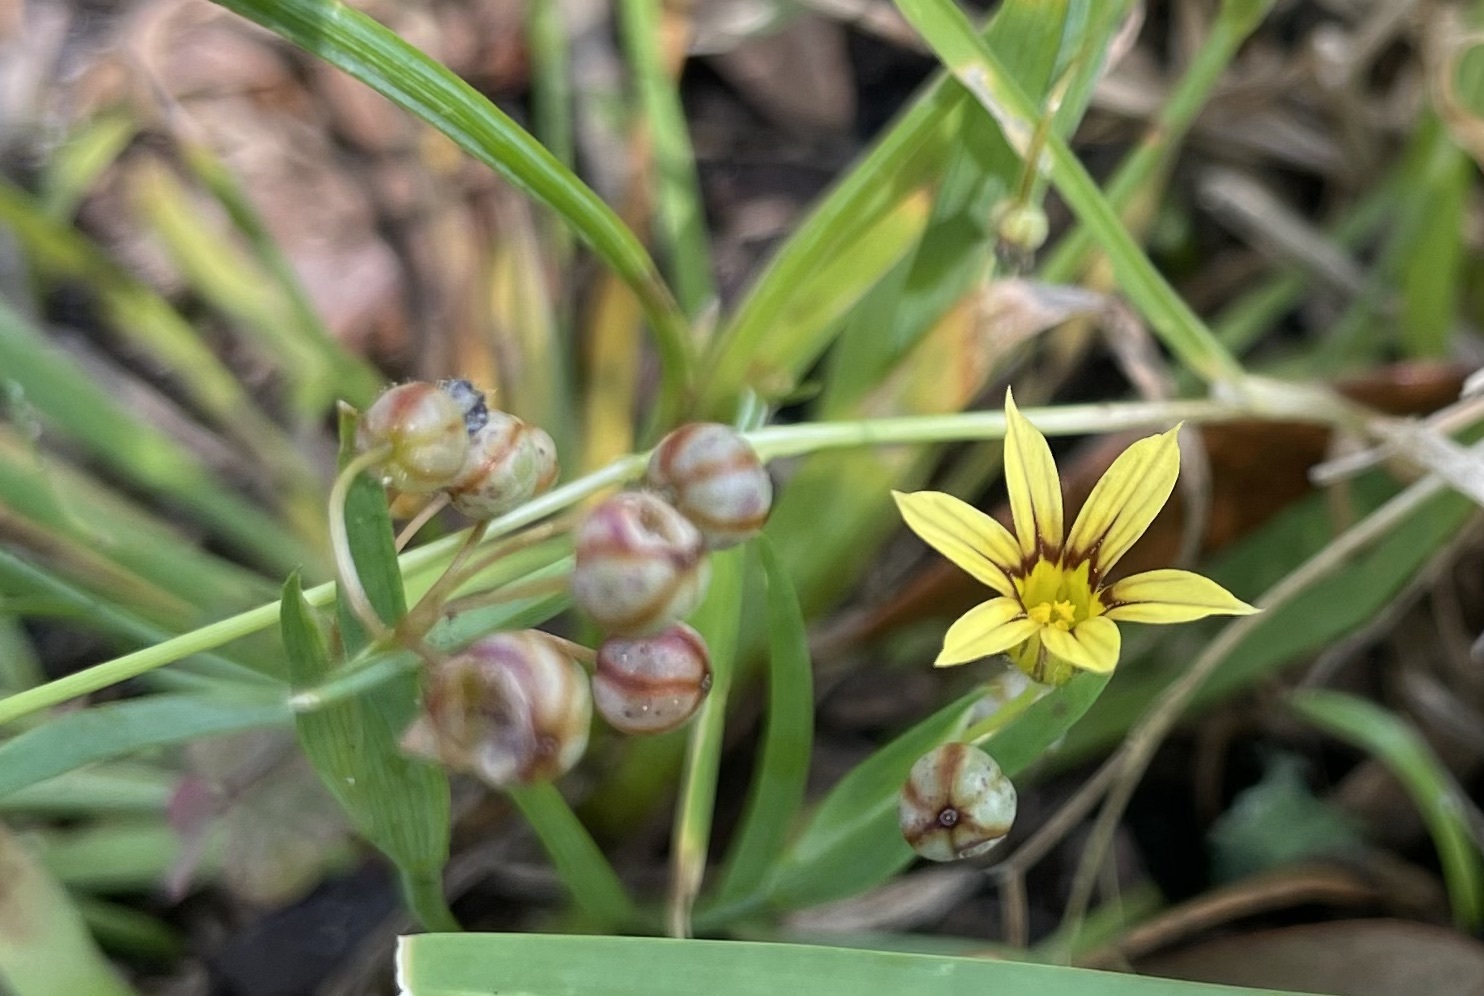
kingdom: Plantae
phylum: Tracheophyta
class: Liliopsida
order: Asparagales
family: Iridaceae
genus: Sisyrinchium
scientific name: Sisyrinchium micranthum
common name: Bermuda pigroot
